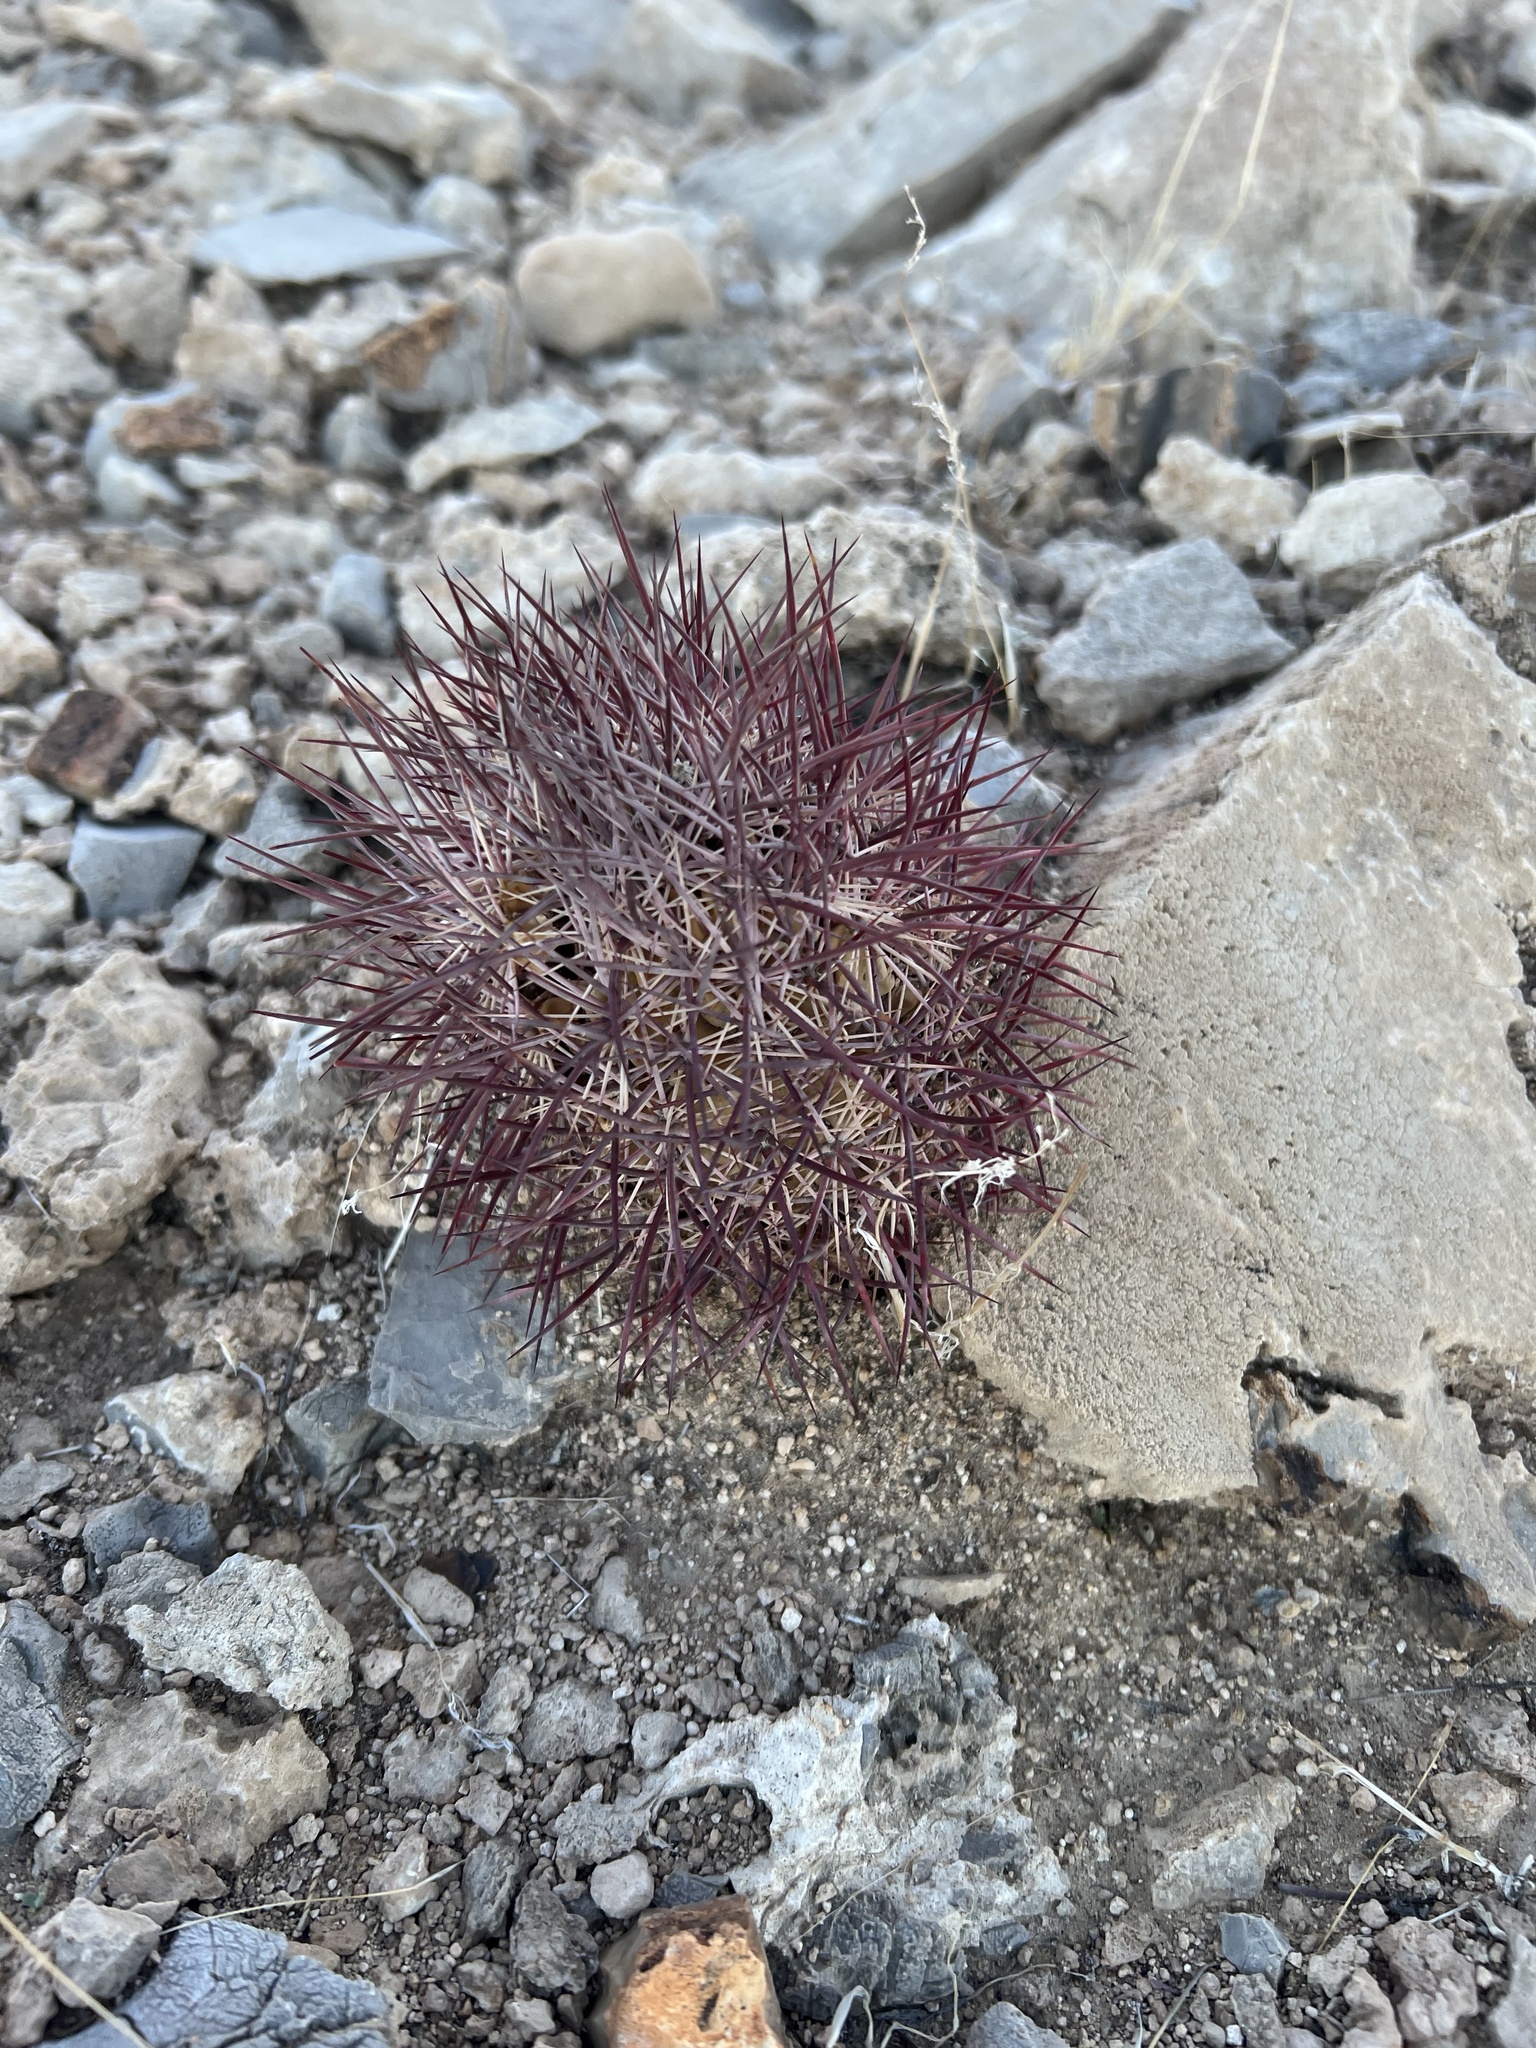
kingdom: Plantae
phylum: Tracheophyta
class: Magnoliopsida
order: Caryophyllales
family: Cactaceae
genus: Sclerocactus
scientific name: Sclerocactus johnsonii
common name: Eight-spine fishhook cactus
